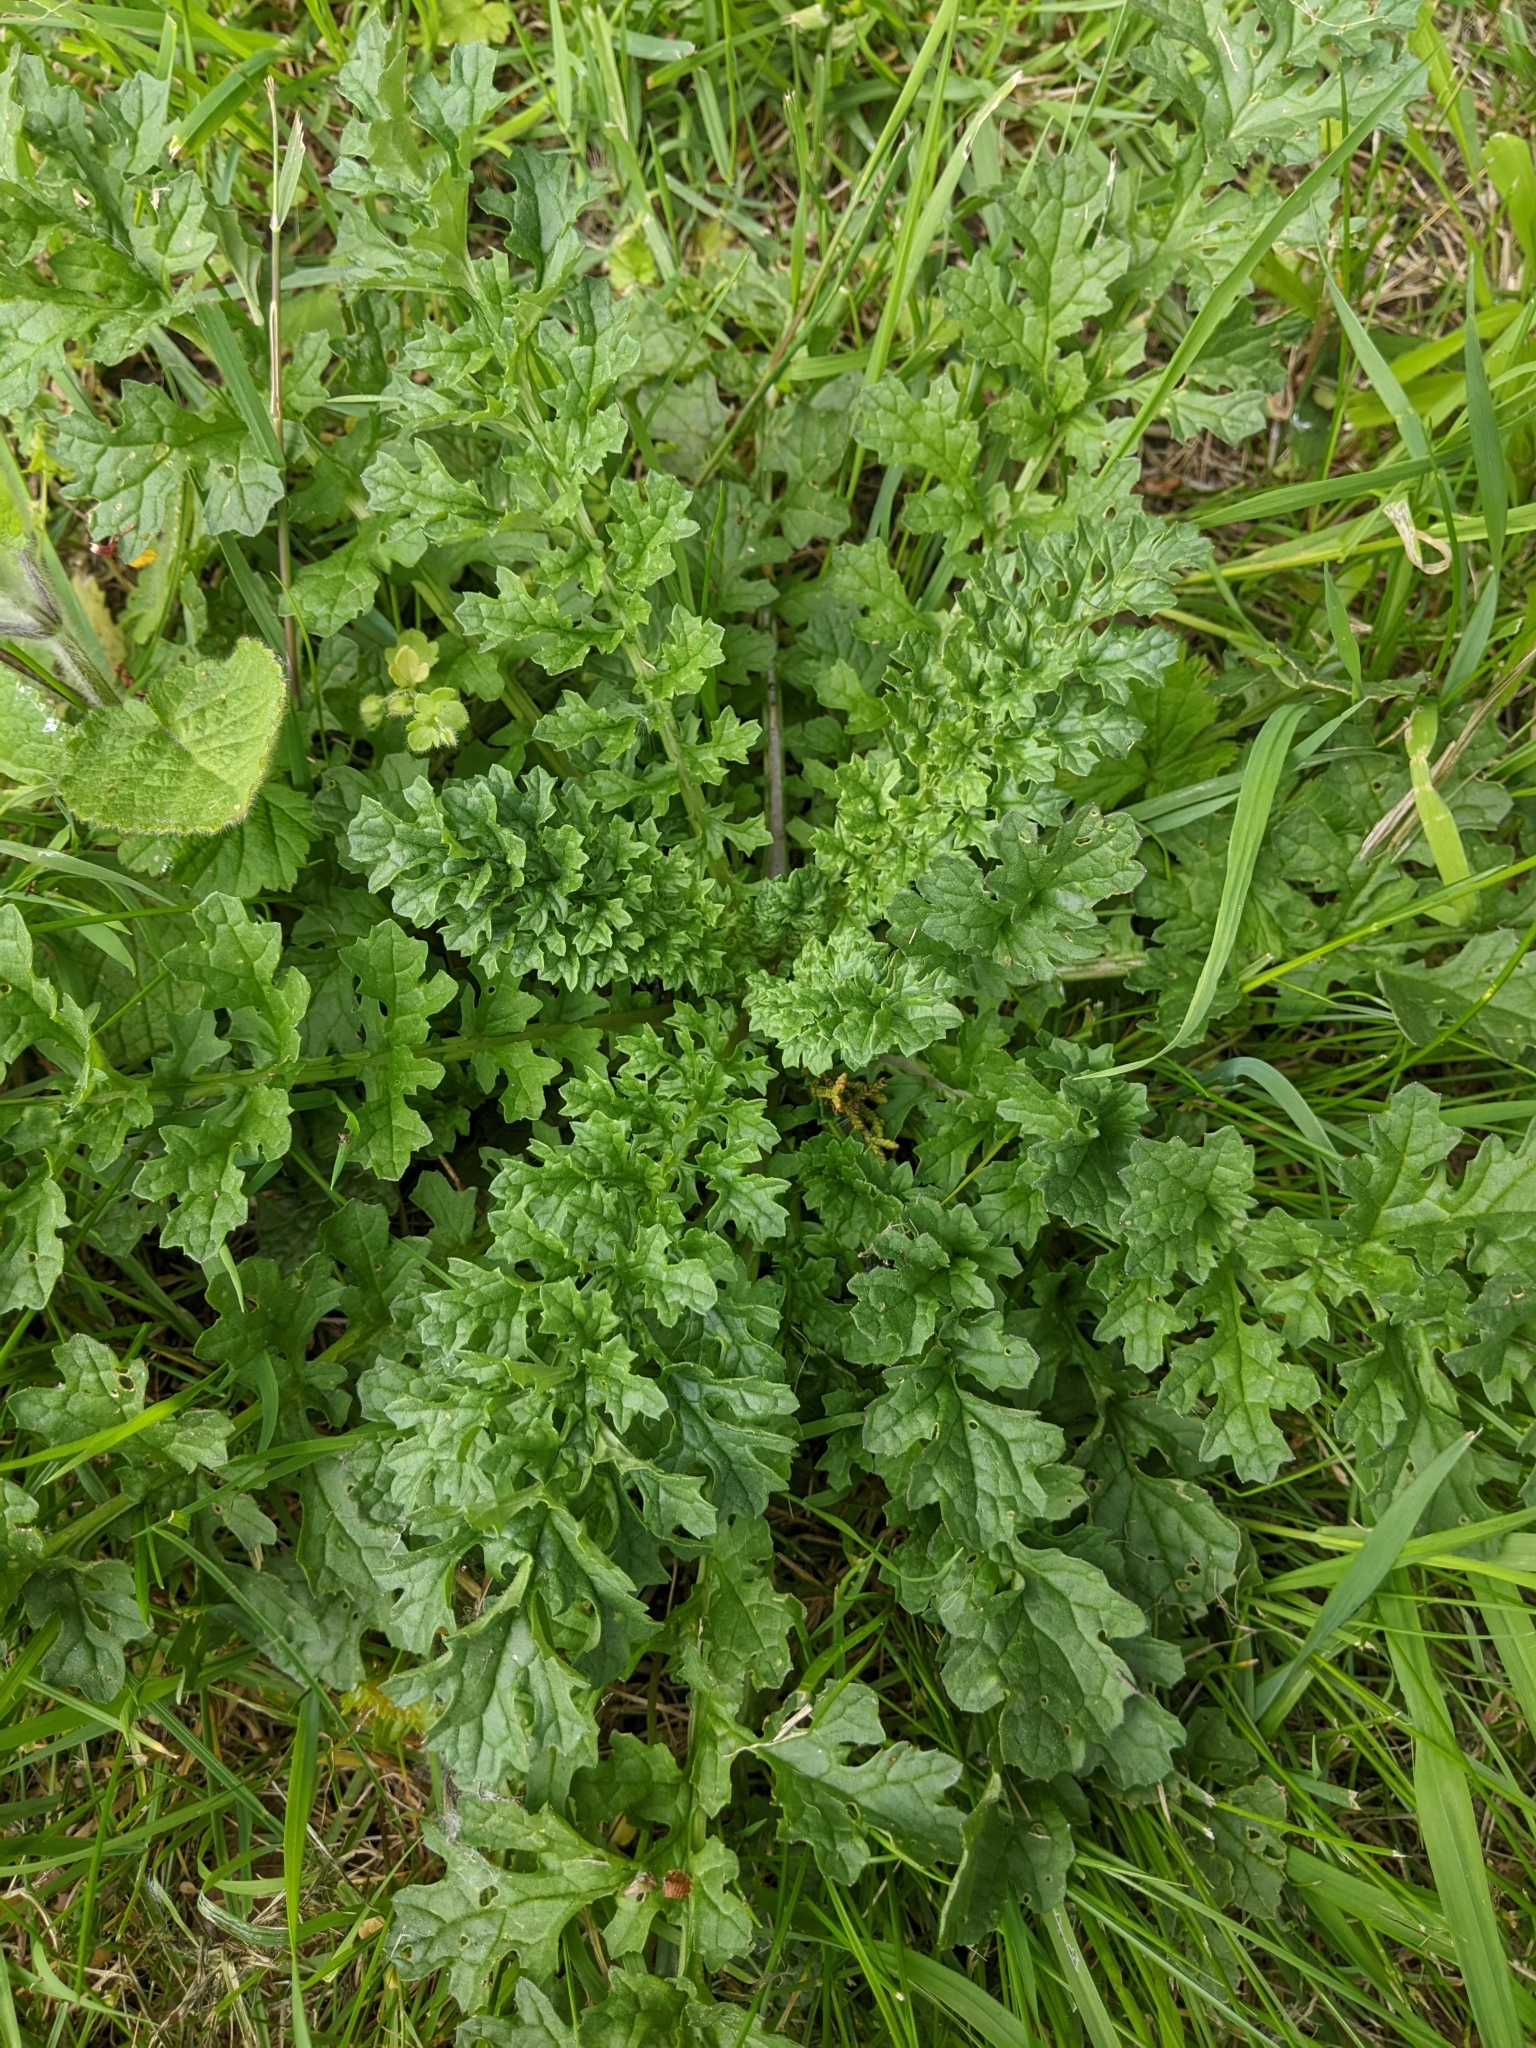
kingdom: Plantae
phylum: Tracheophyta
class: Magnoliopsida
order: Asterales
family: Asteraceae
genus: Jacobaea
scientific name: Jacobaea vulgaris
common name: Stinking willie
